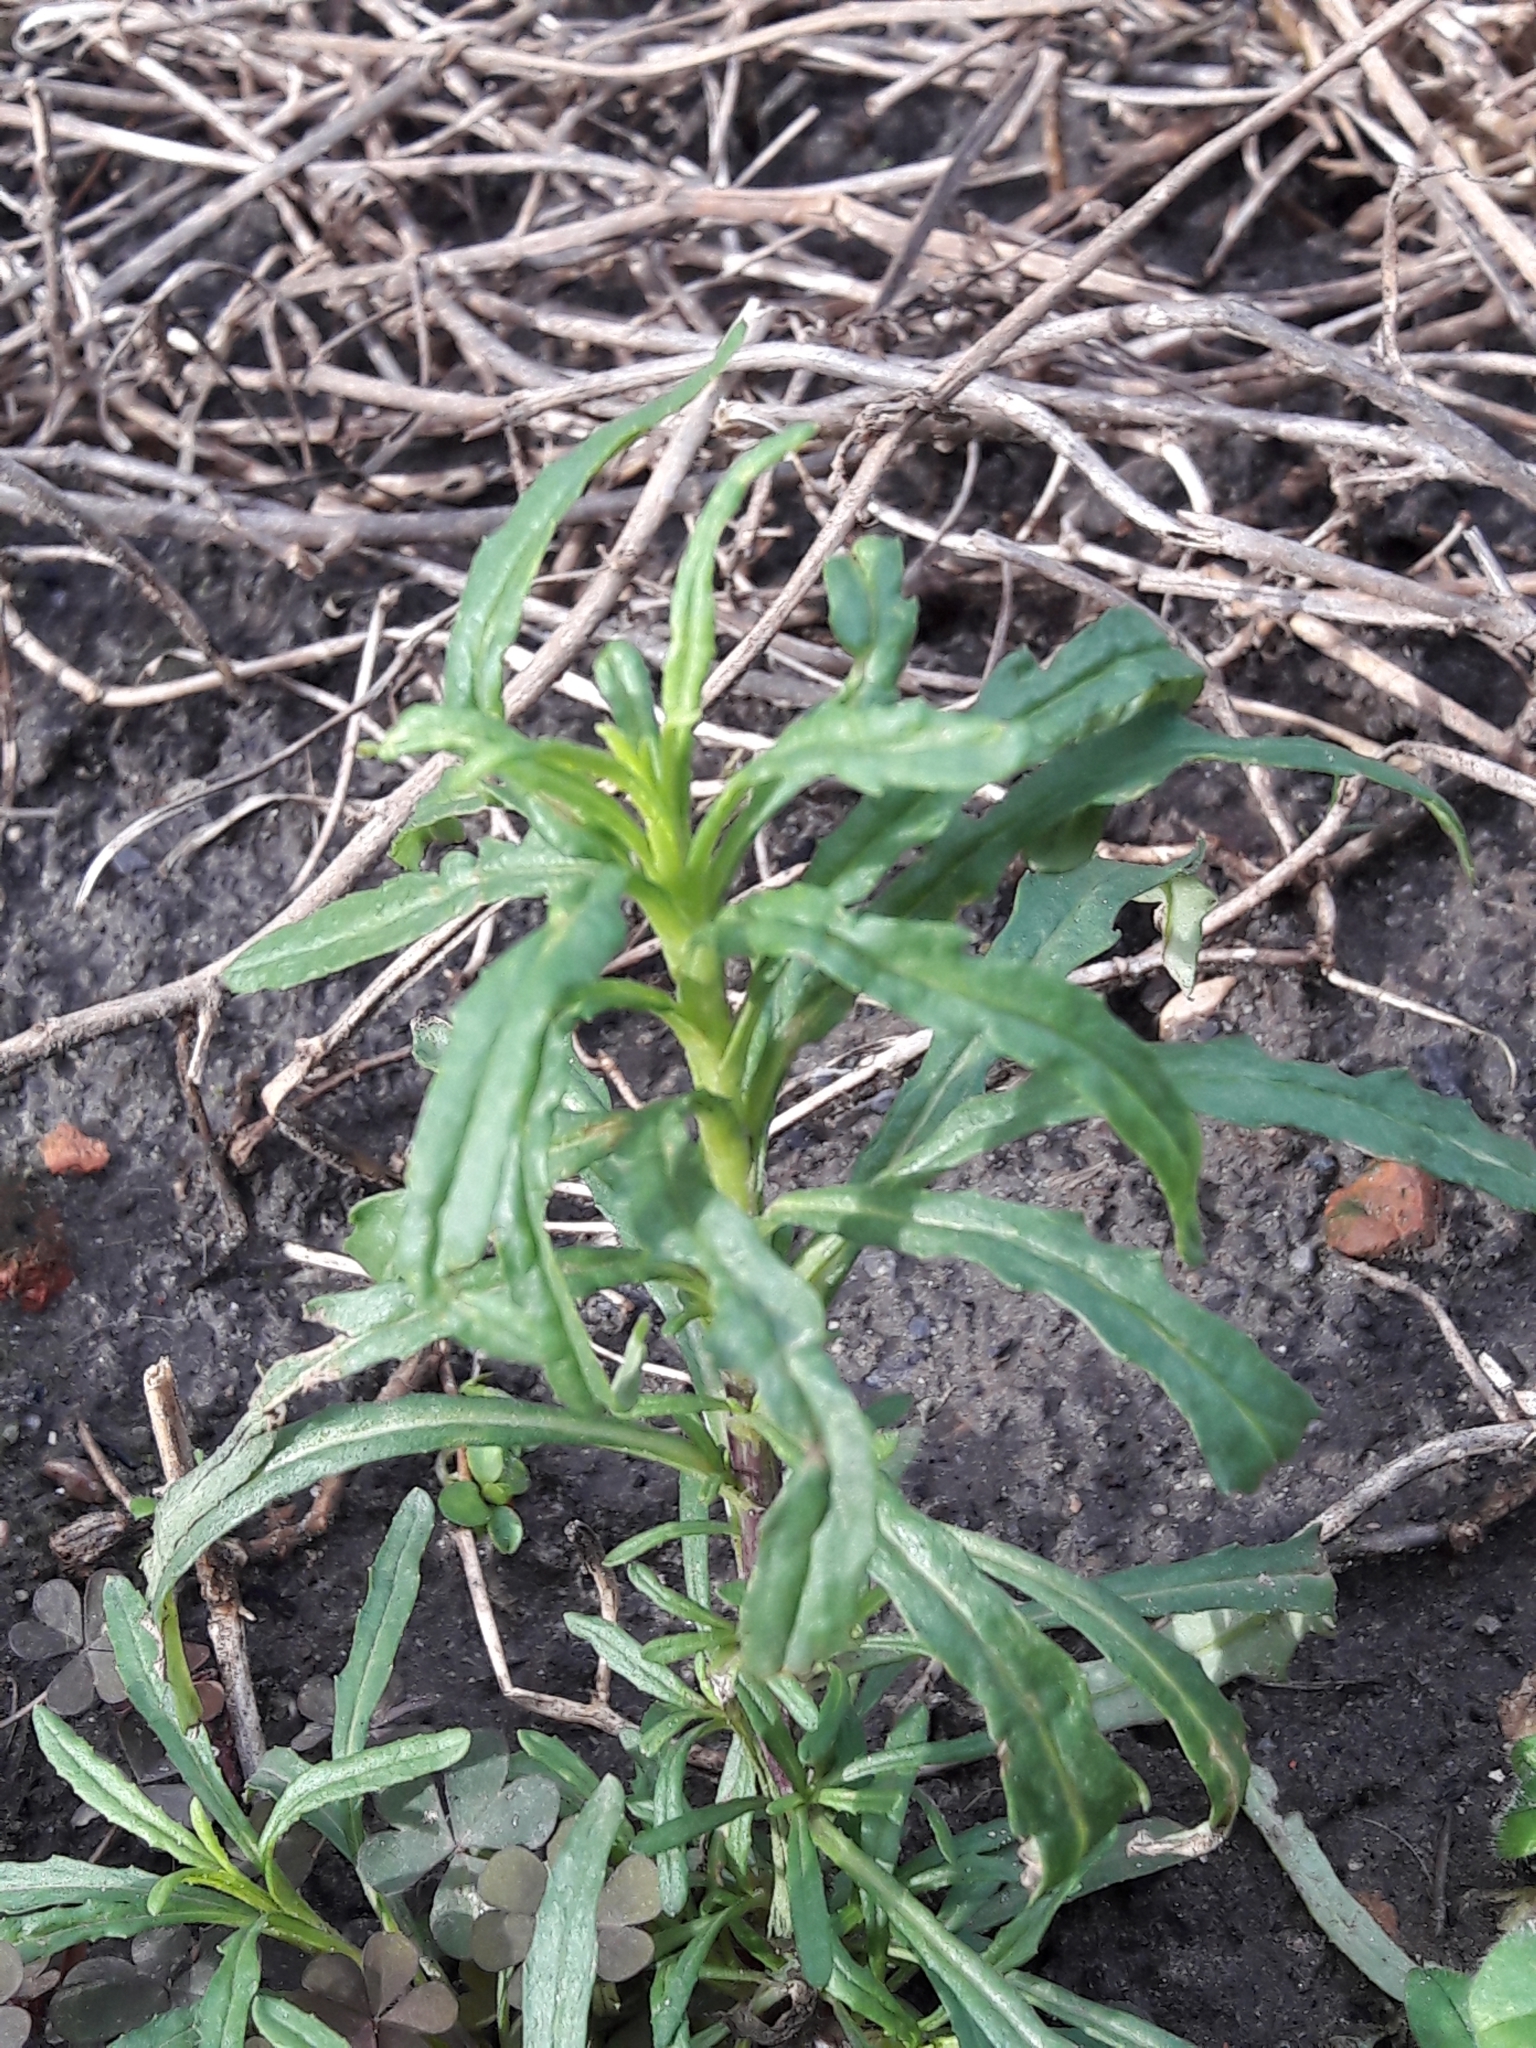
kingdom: Plantae
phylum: Tracheophyta
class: Magnoliopsida
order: Asterales
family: Asteraceae
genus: Senecio
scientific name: Senecio inaequidens
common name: Narrow-leaved ragwort
